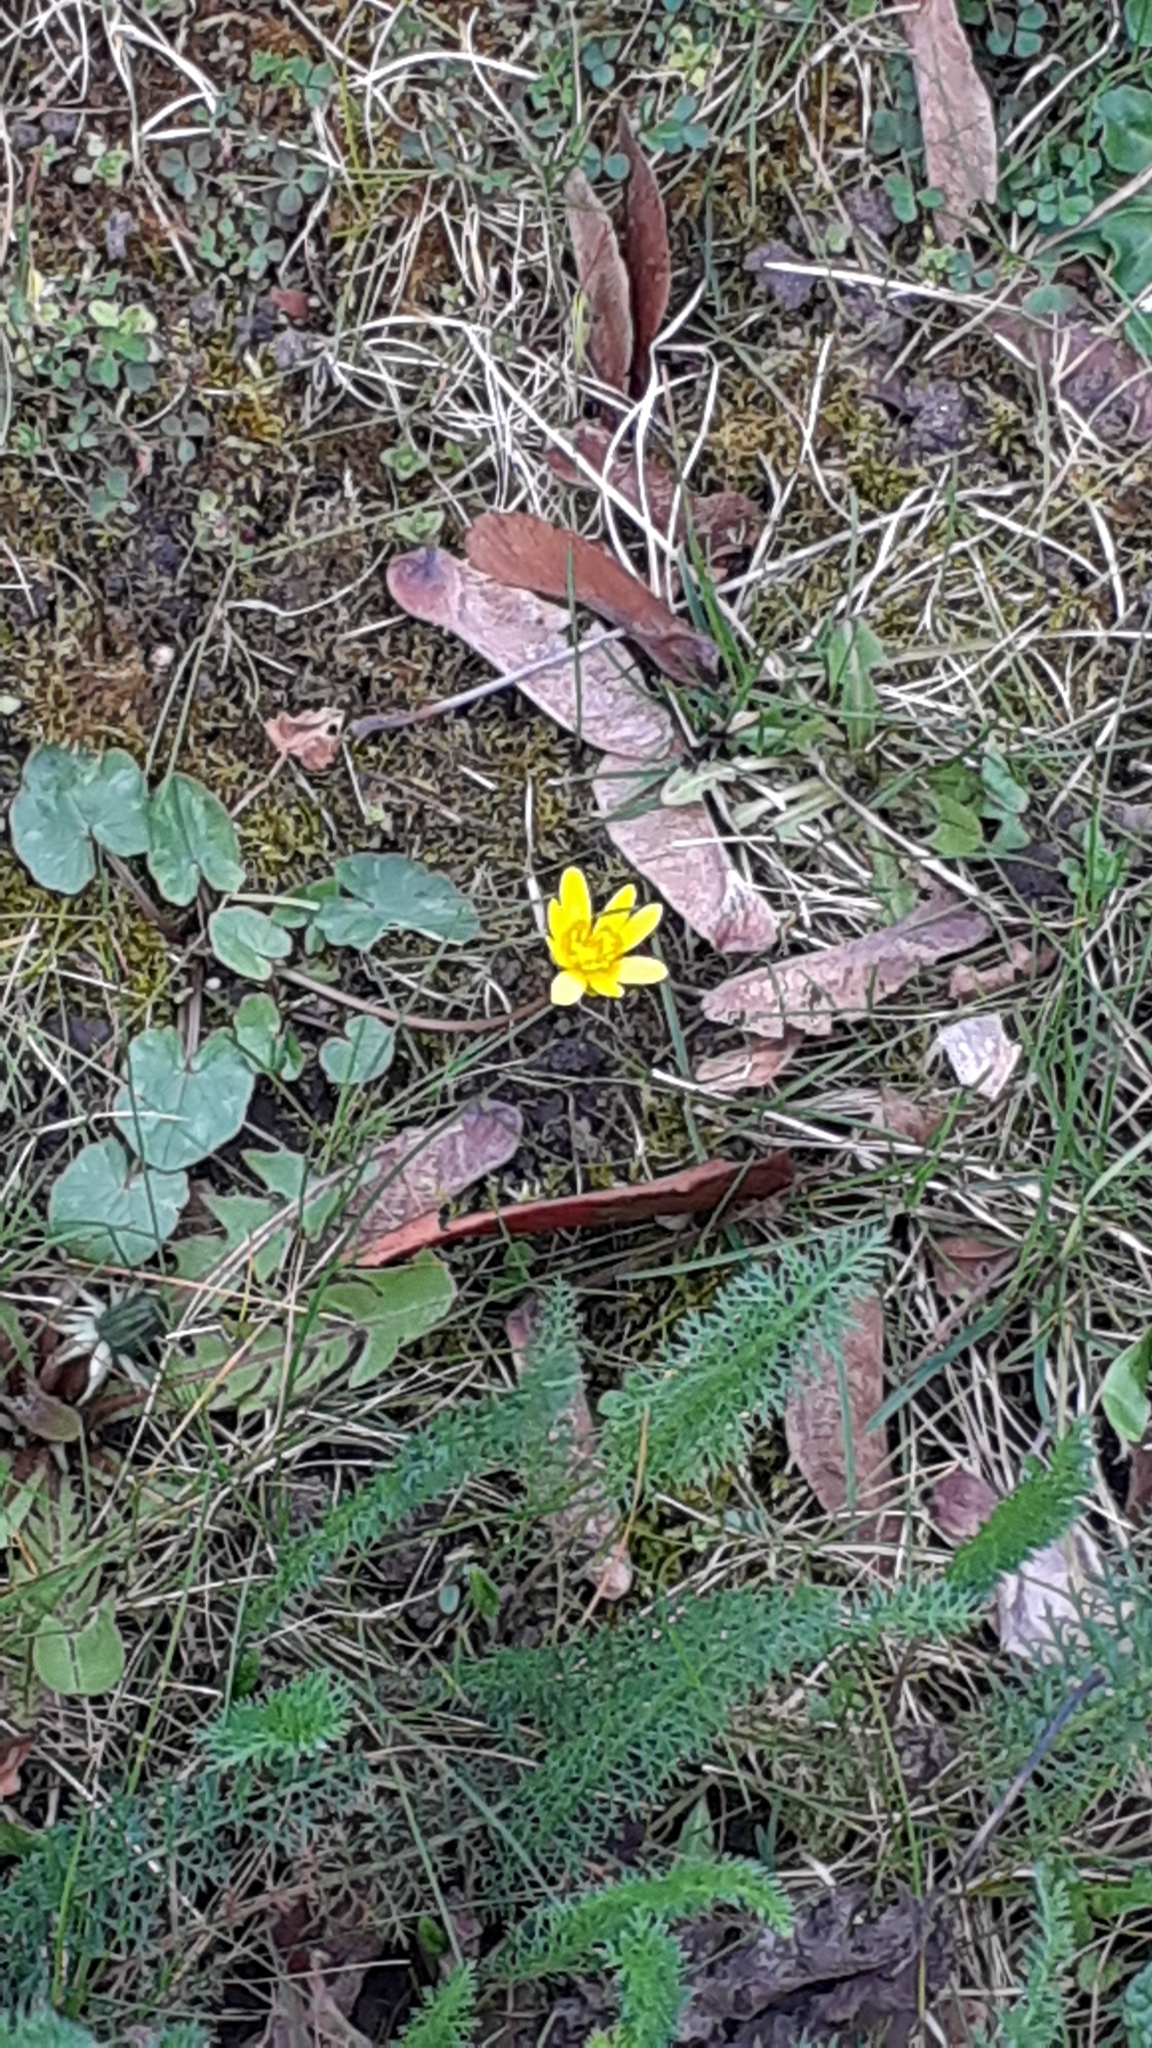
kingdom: Plantae
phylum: Tracheophyta
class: Magnoliopsida
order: Ranunculales
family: Ranunculaceae
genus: Ficaria
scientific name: Ficaria verna
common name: Lesser celandine
